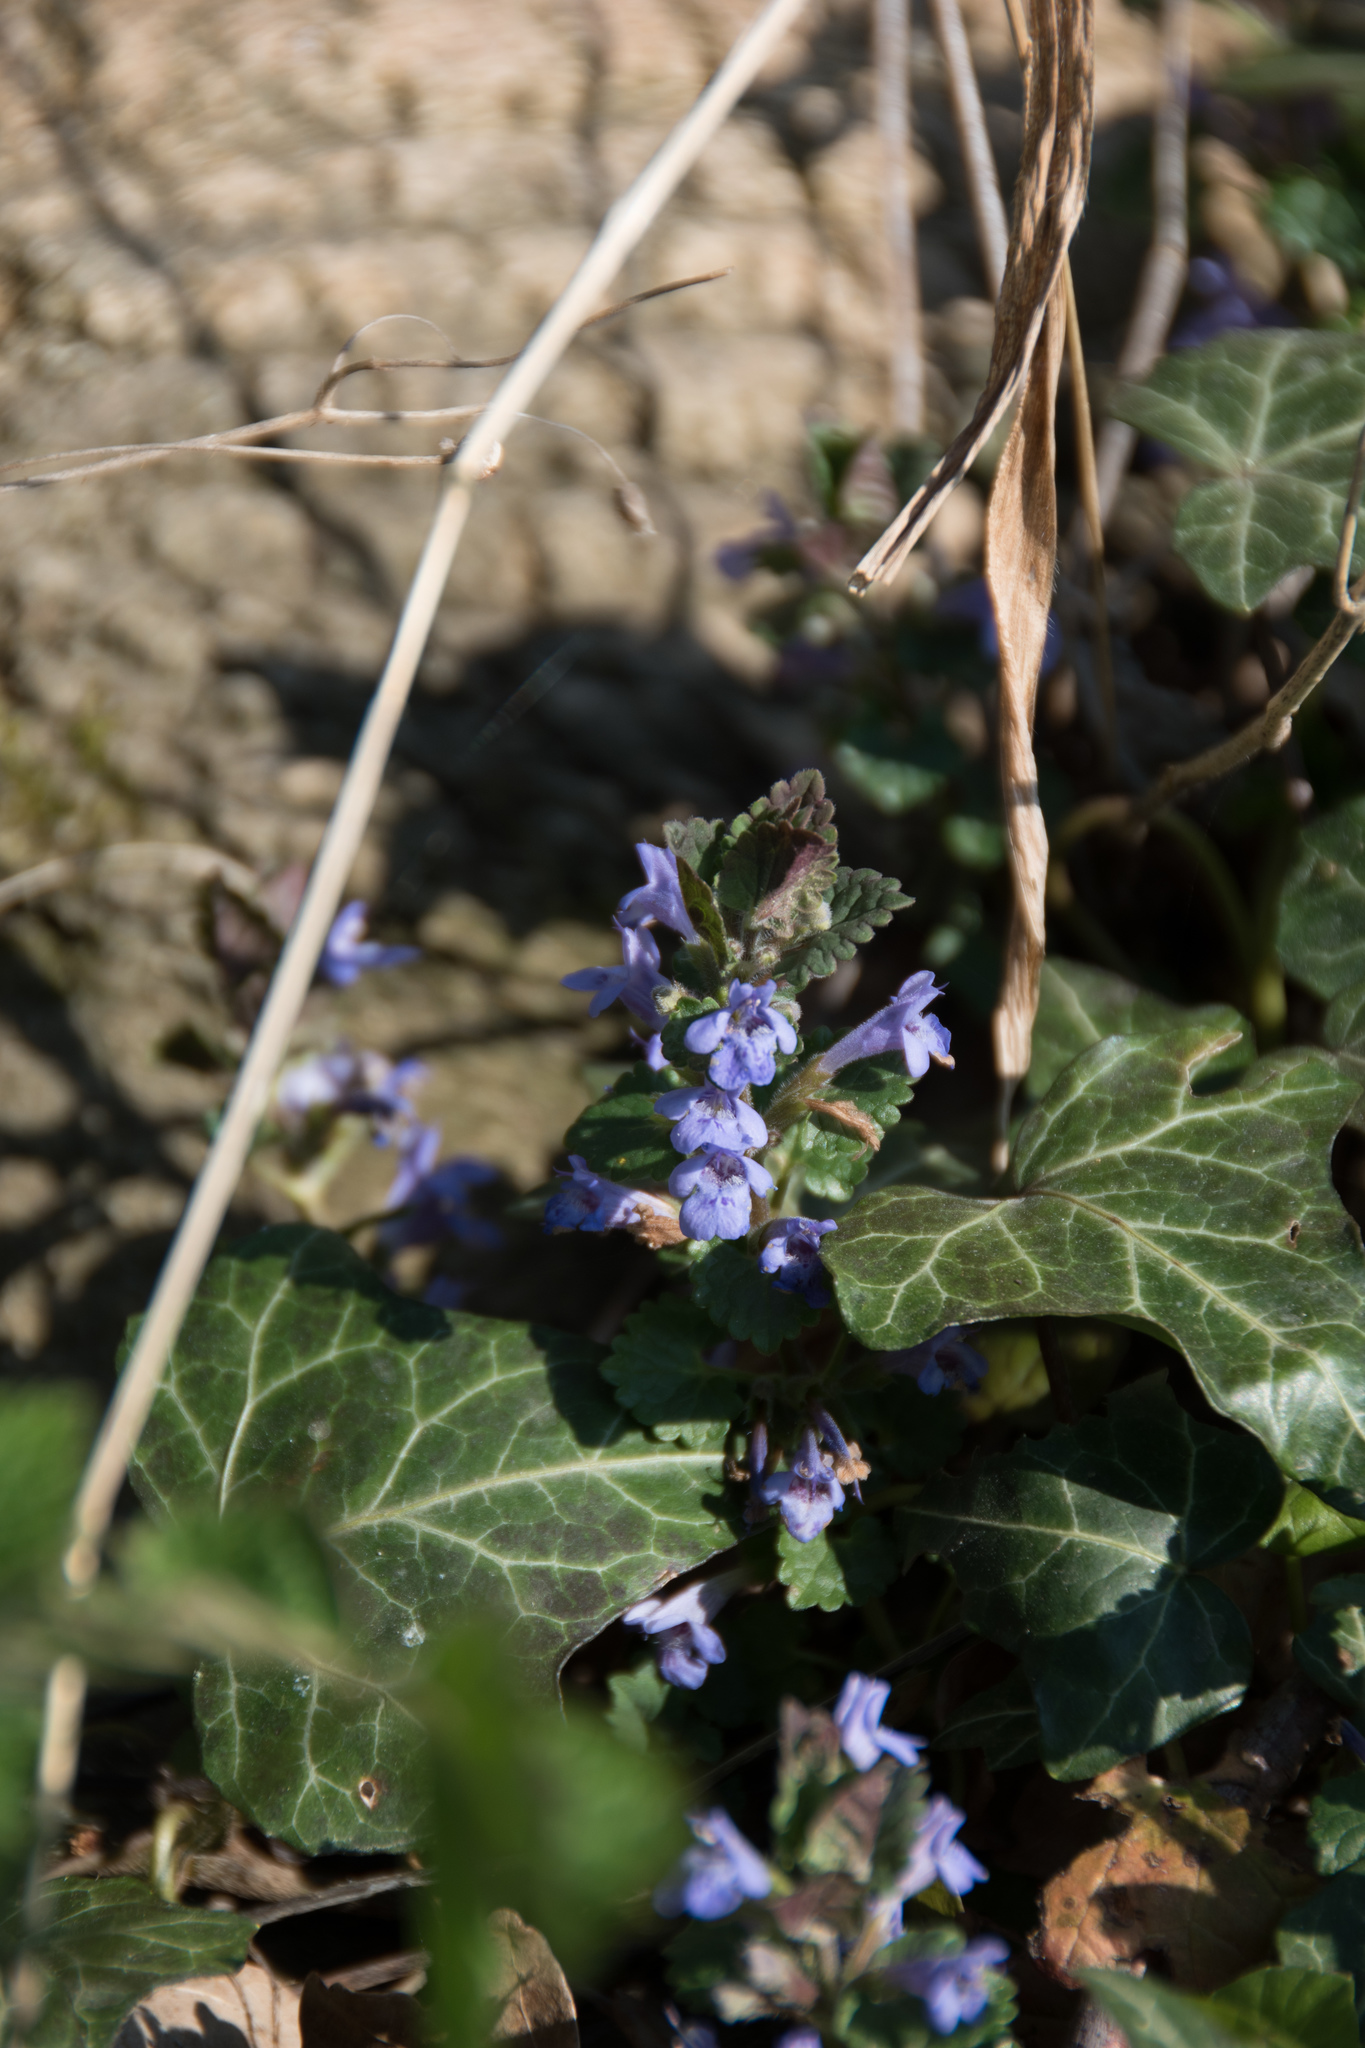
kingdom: Plantae
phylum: Tracheophyta
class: Magnoliopsida
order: Lamiales
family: Lamiaceae
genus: Glechoma
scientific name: Glechoma hederacea
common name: Ground ivy
